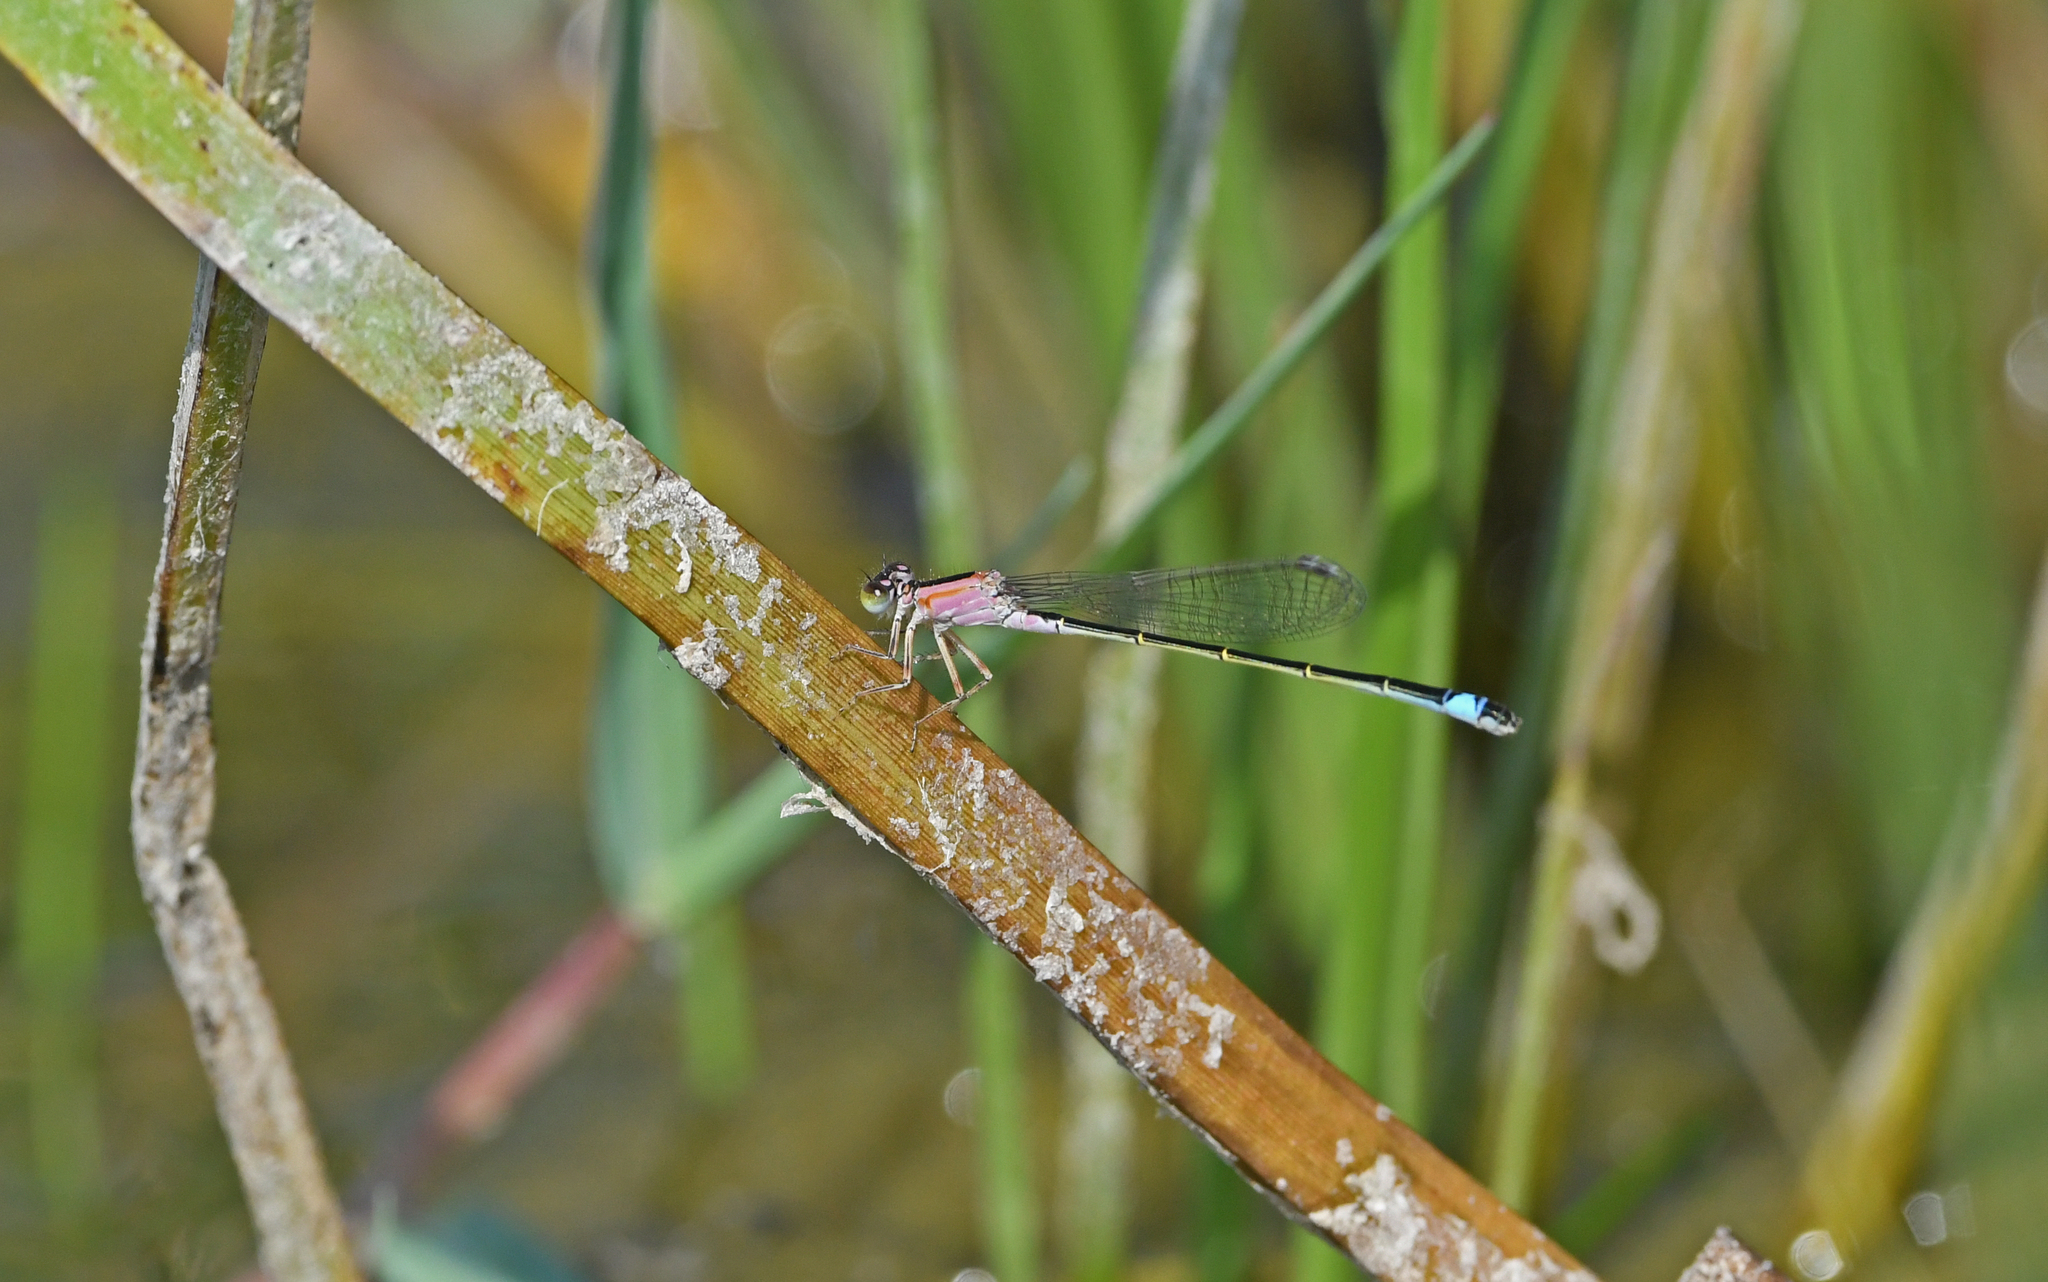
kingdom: Animalia
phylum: Arthropoda
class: Insecta
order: Odonata
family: Coenagrionidae
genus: Ischnura
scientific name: Ischnura genei
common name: Island bluetail
